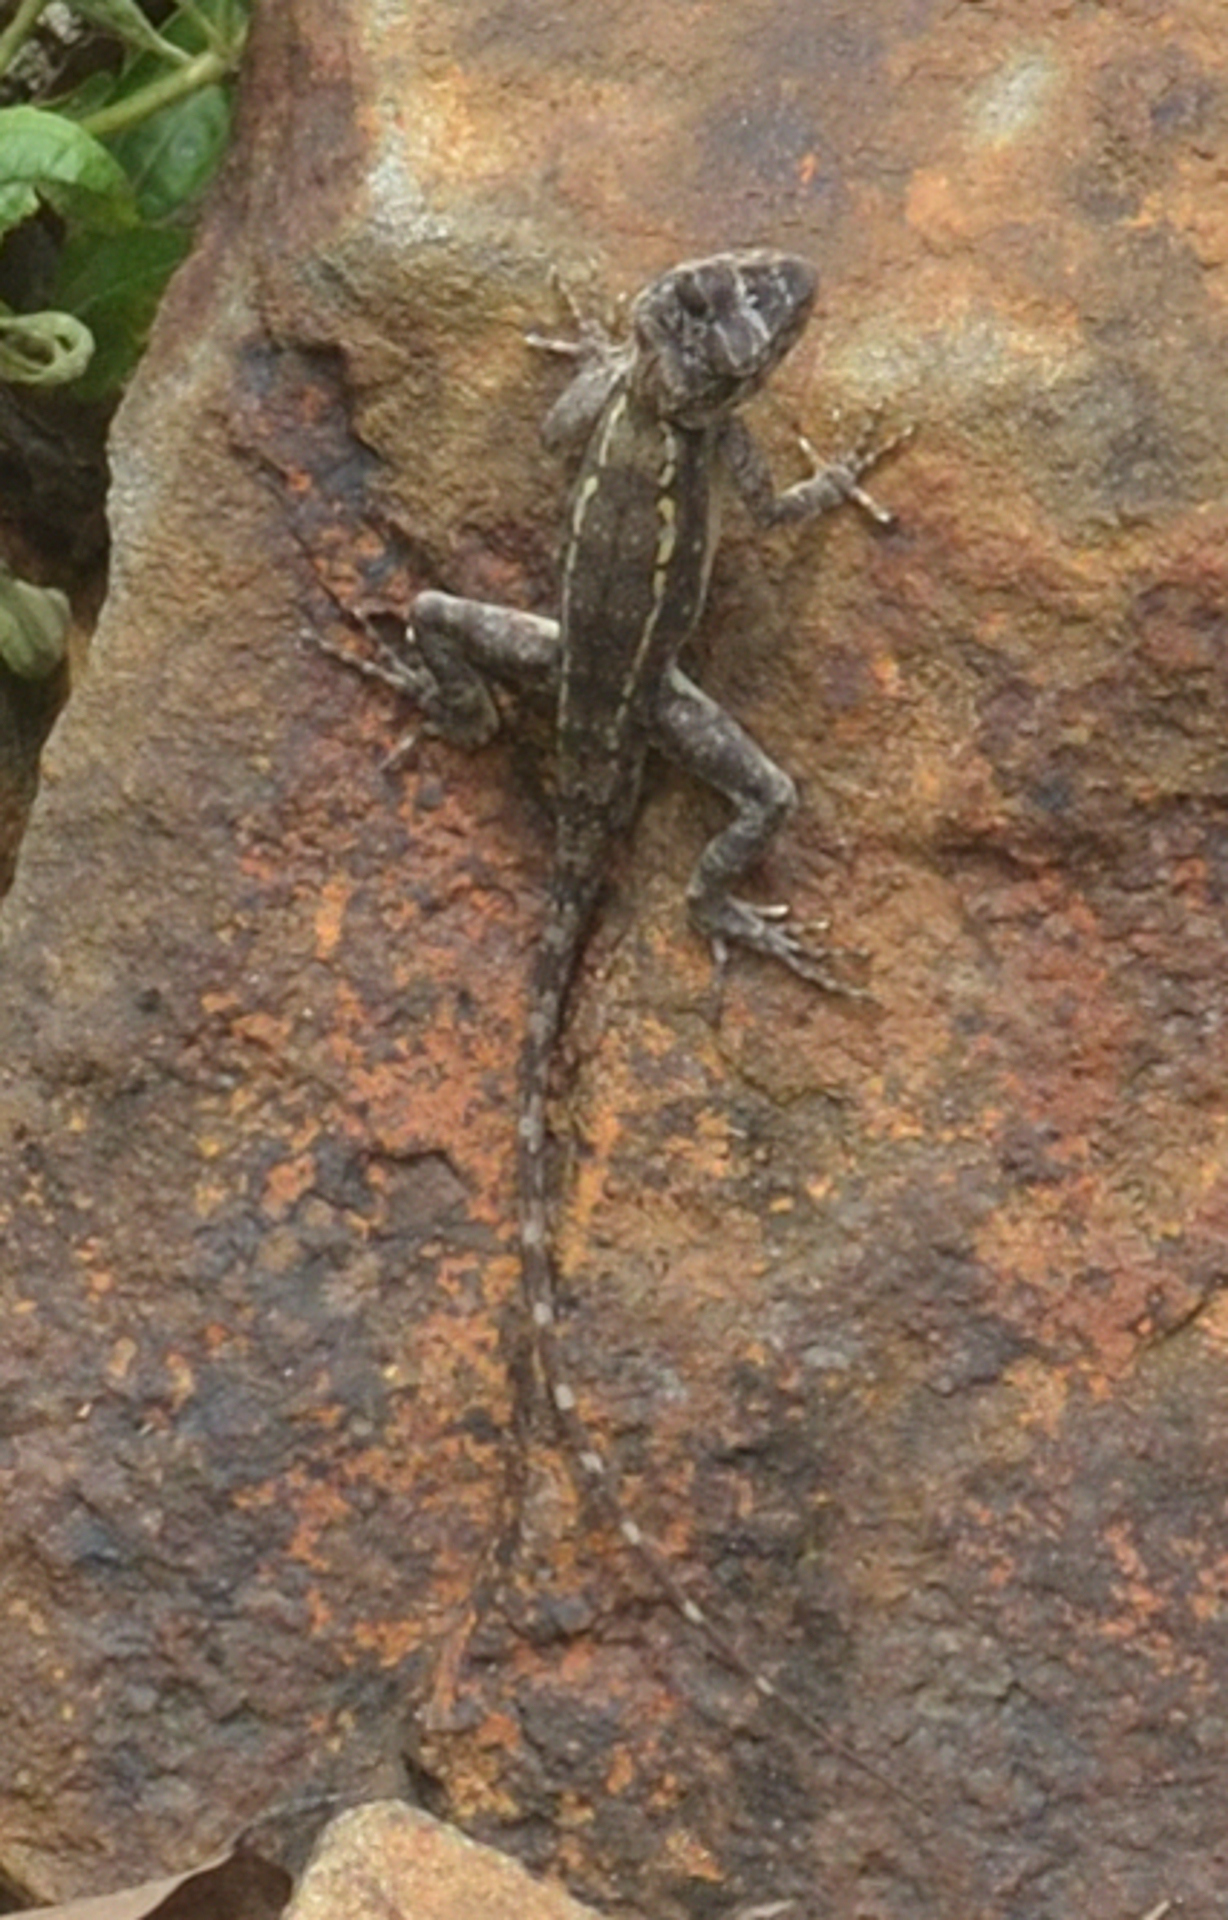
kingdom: Animalia
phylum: Chordata
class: Squamata
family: Agamidae
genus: Psammophilus
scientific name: Psammophilus dorsalis
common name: South indian rock agama
